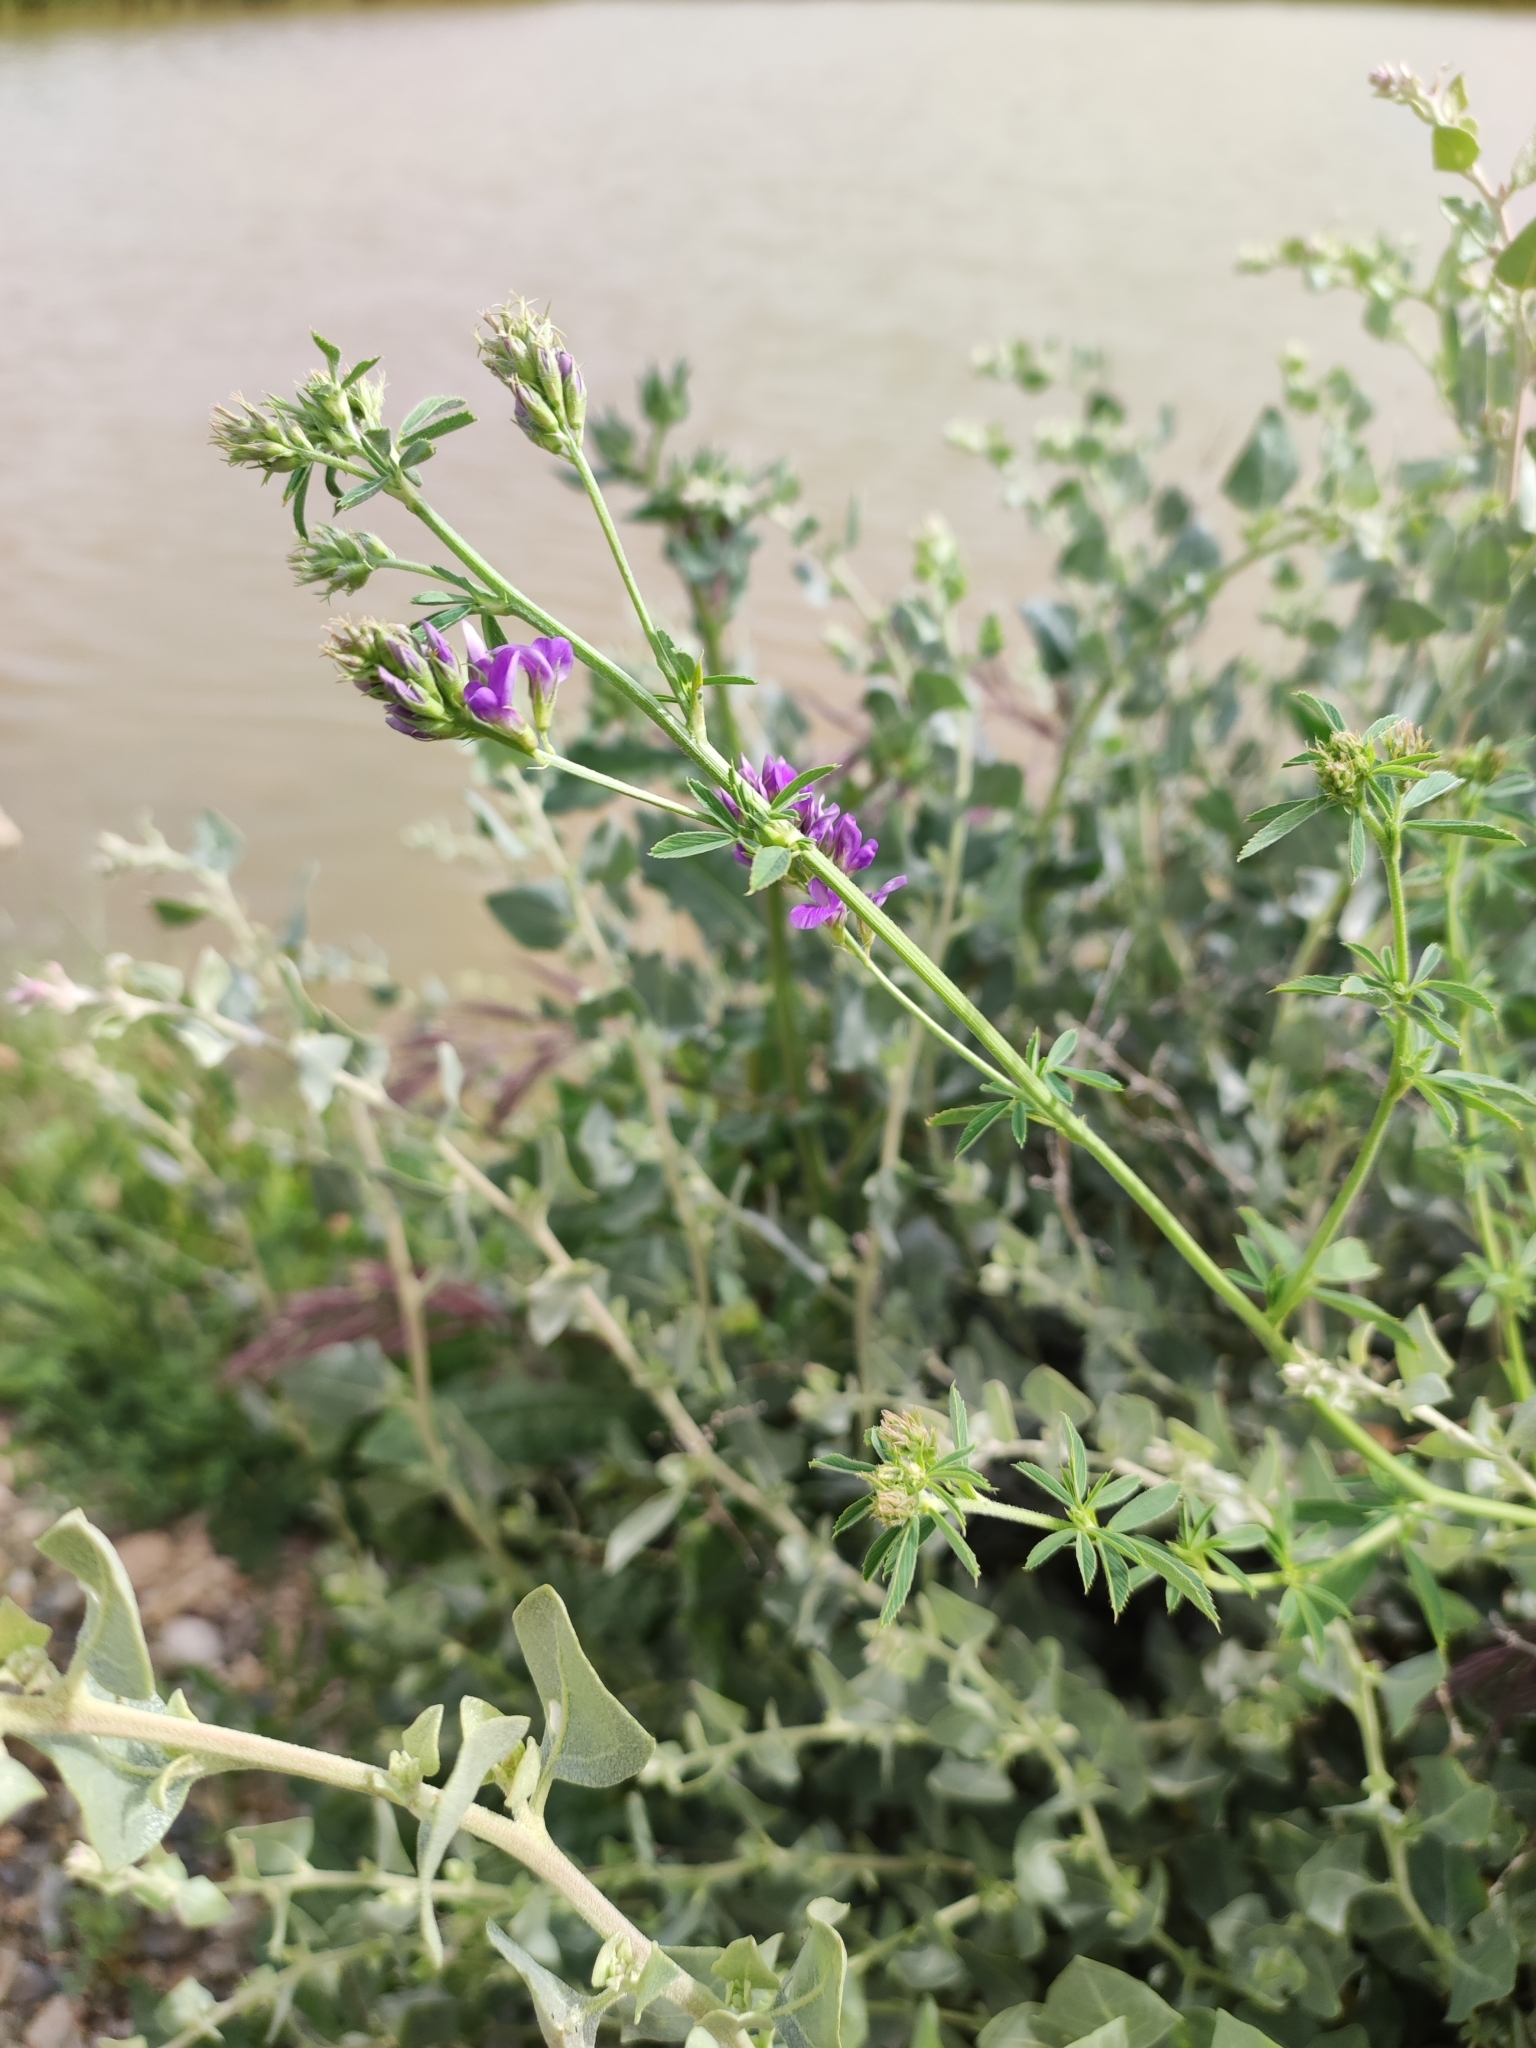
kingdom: Plantae
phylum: Tracheophyta
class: Magnoliopsida
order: Fabales
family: Fabaceae
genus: Medicago
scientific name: Medicago sativa
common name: Alfalfa
